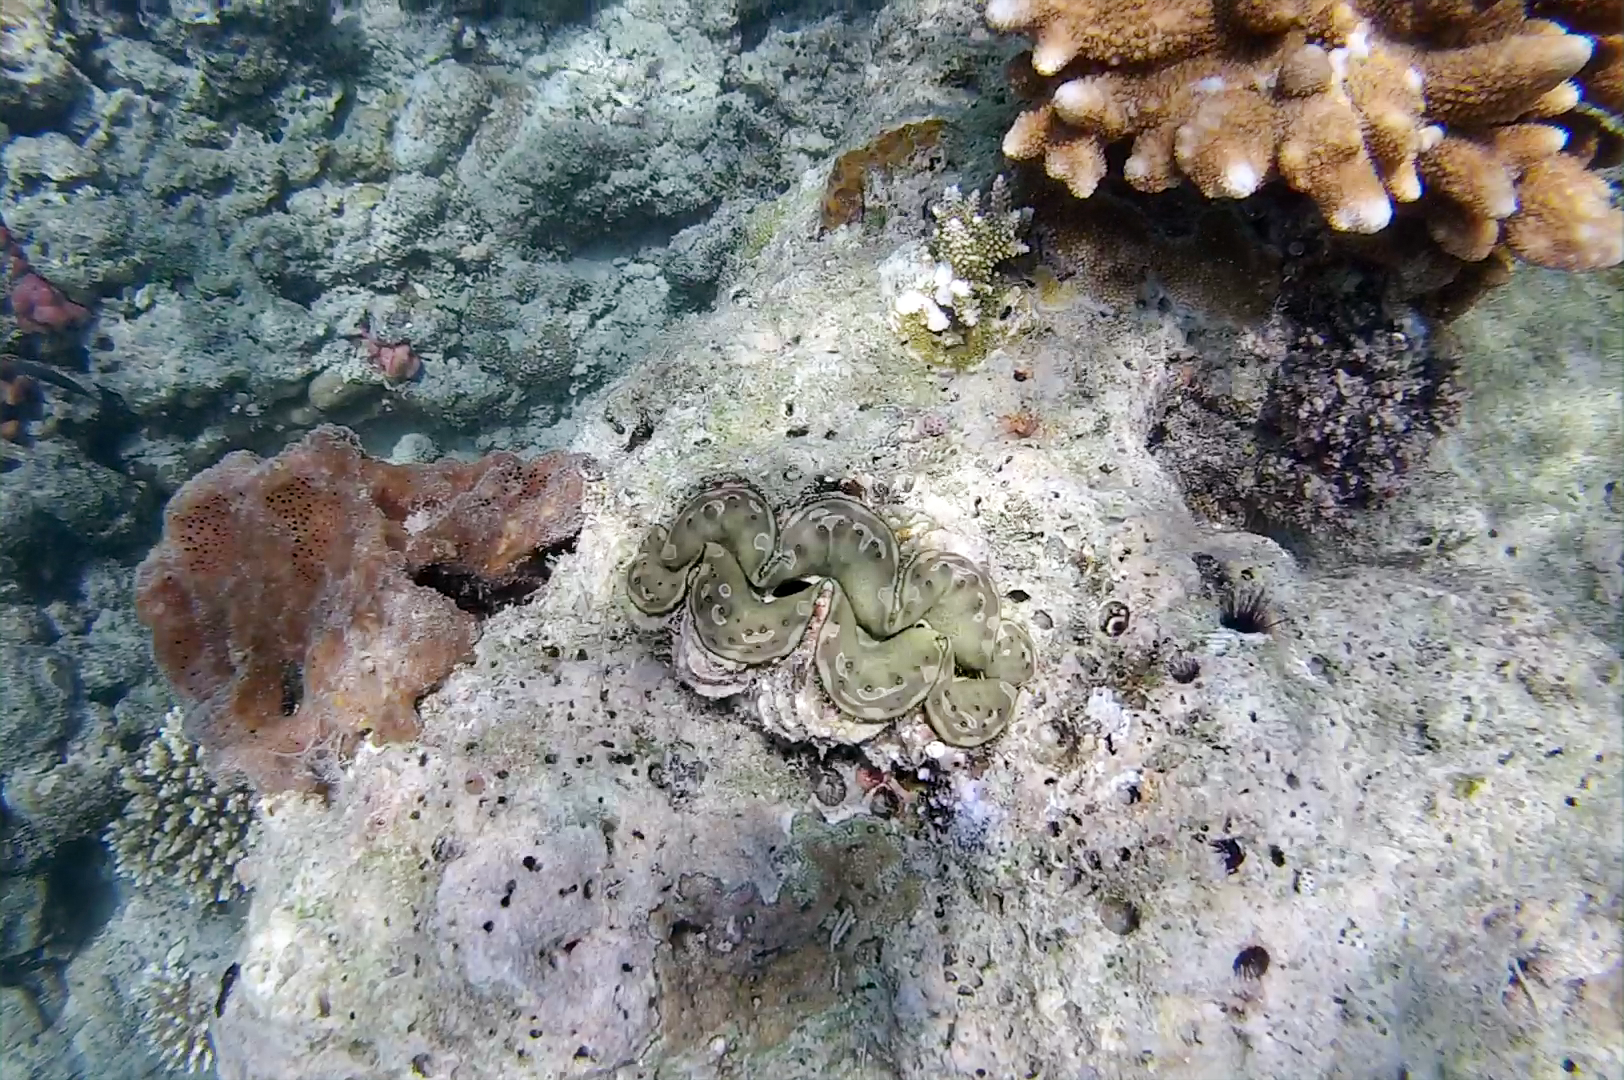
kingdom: Animalia
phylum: Mollusca
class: Bivalvia
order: Cardiida
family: Cardiidae
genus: Tridacna
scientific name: Tridacna squamosa
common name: Fluted clam
